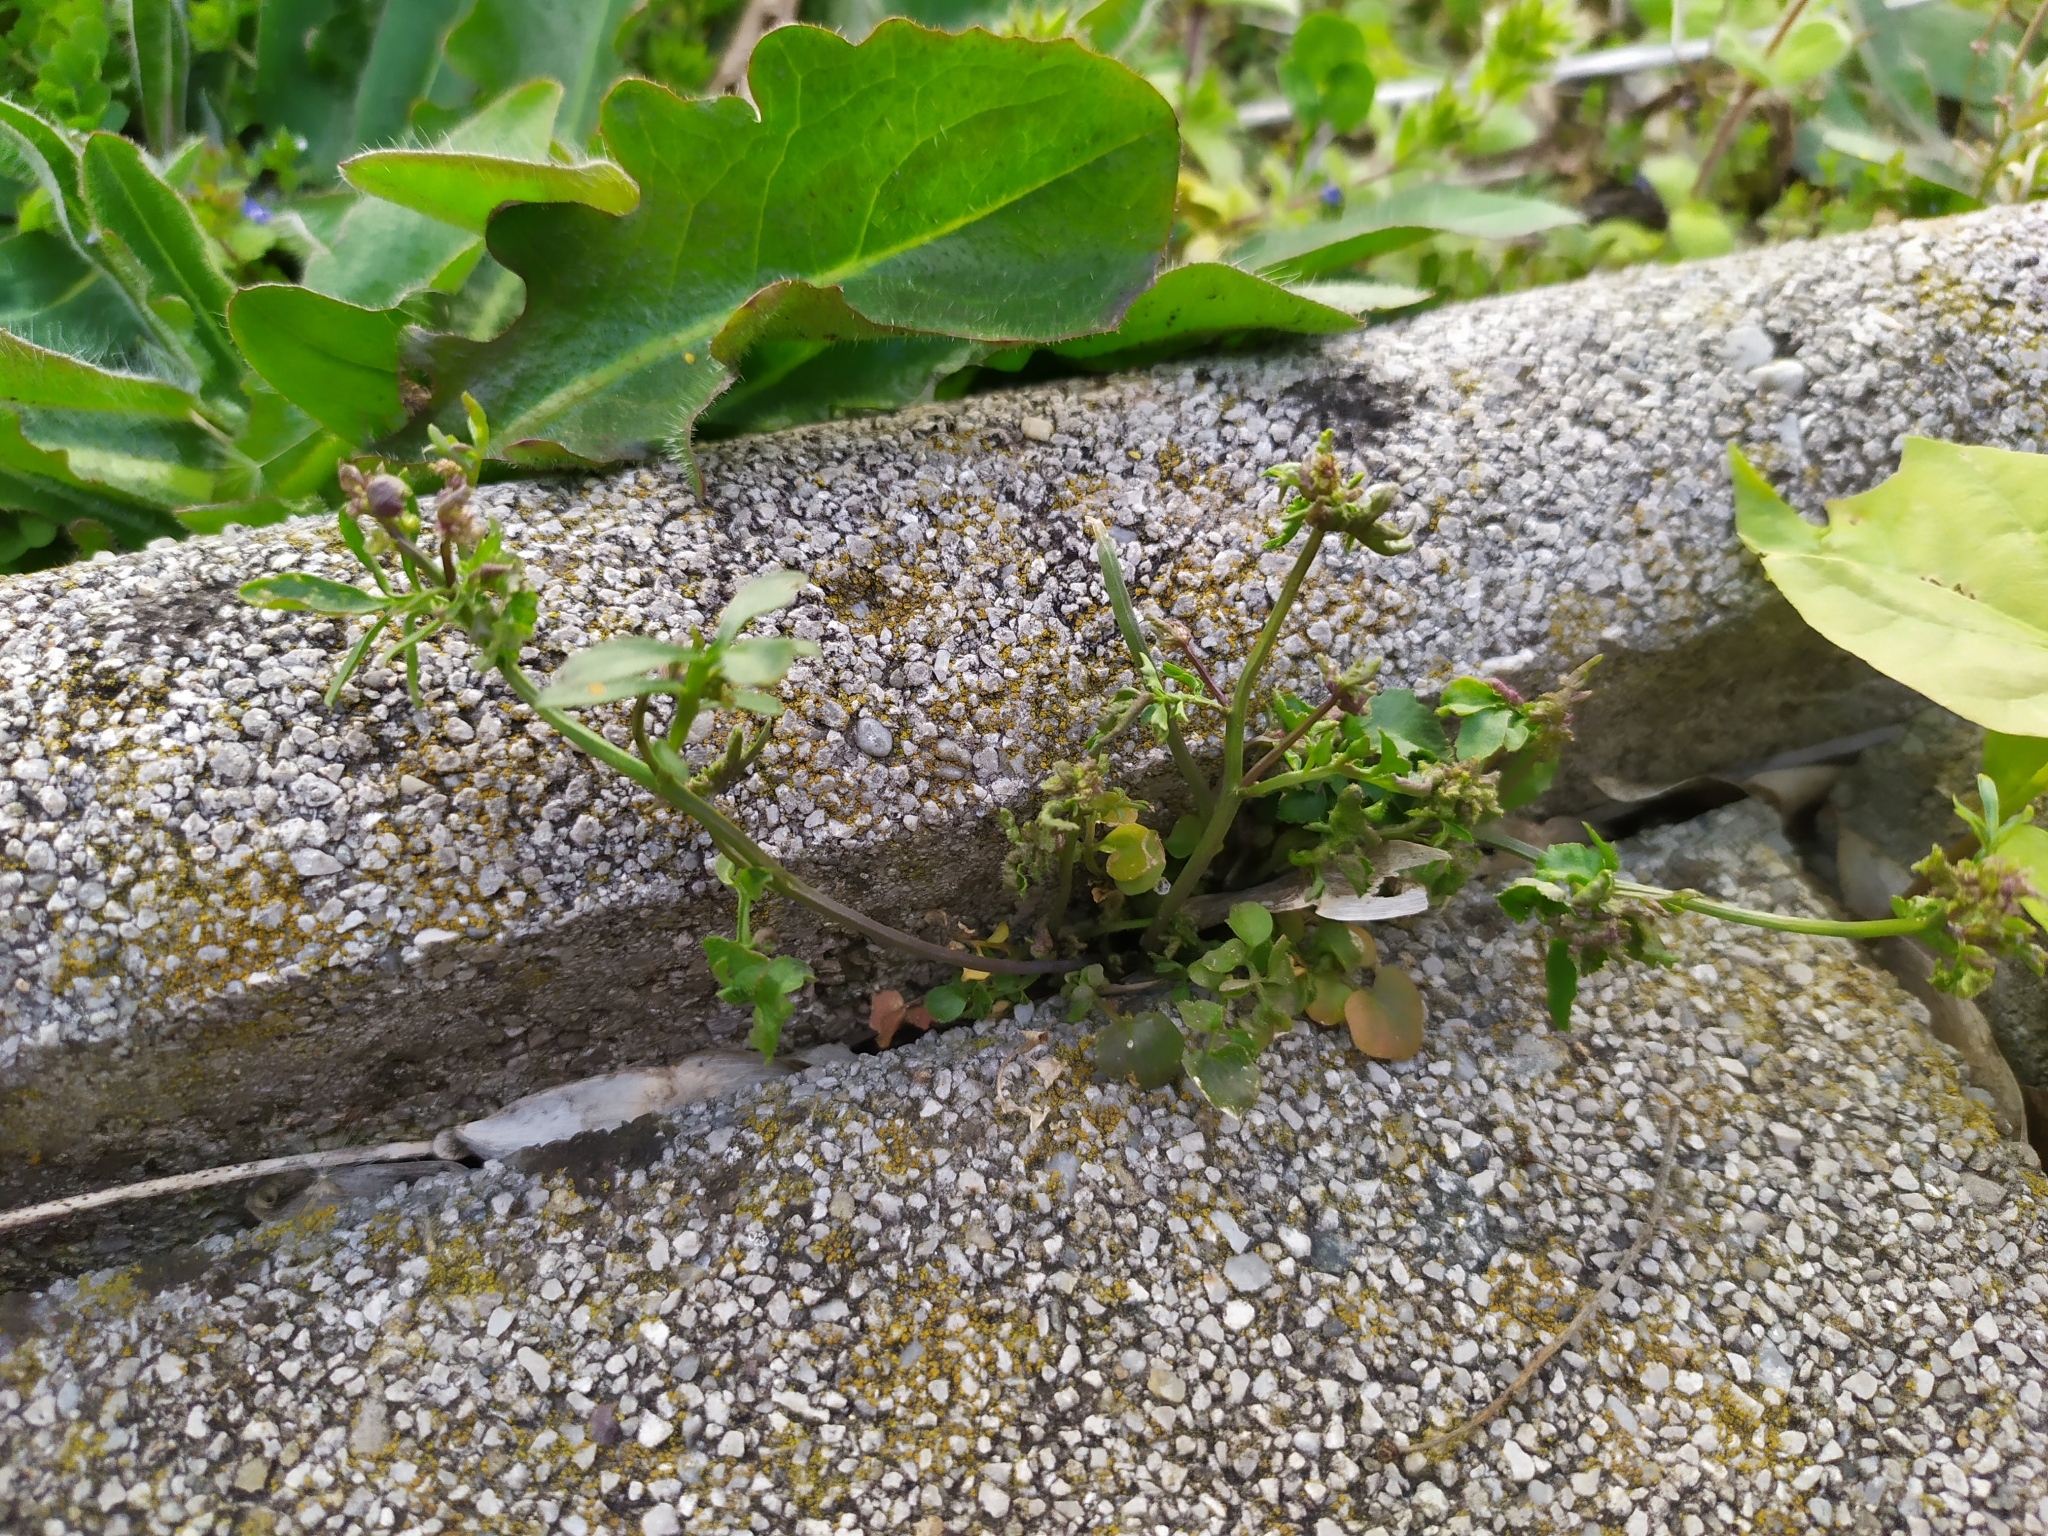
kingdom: Plantae
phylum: Tracheophyta
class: Magnoliopsida
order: Brassicales
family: Brassicaceae
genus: Cardamine
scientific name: Cardamine hirsuta
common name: Hairy bittercress
